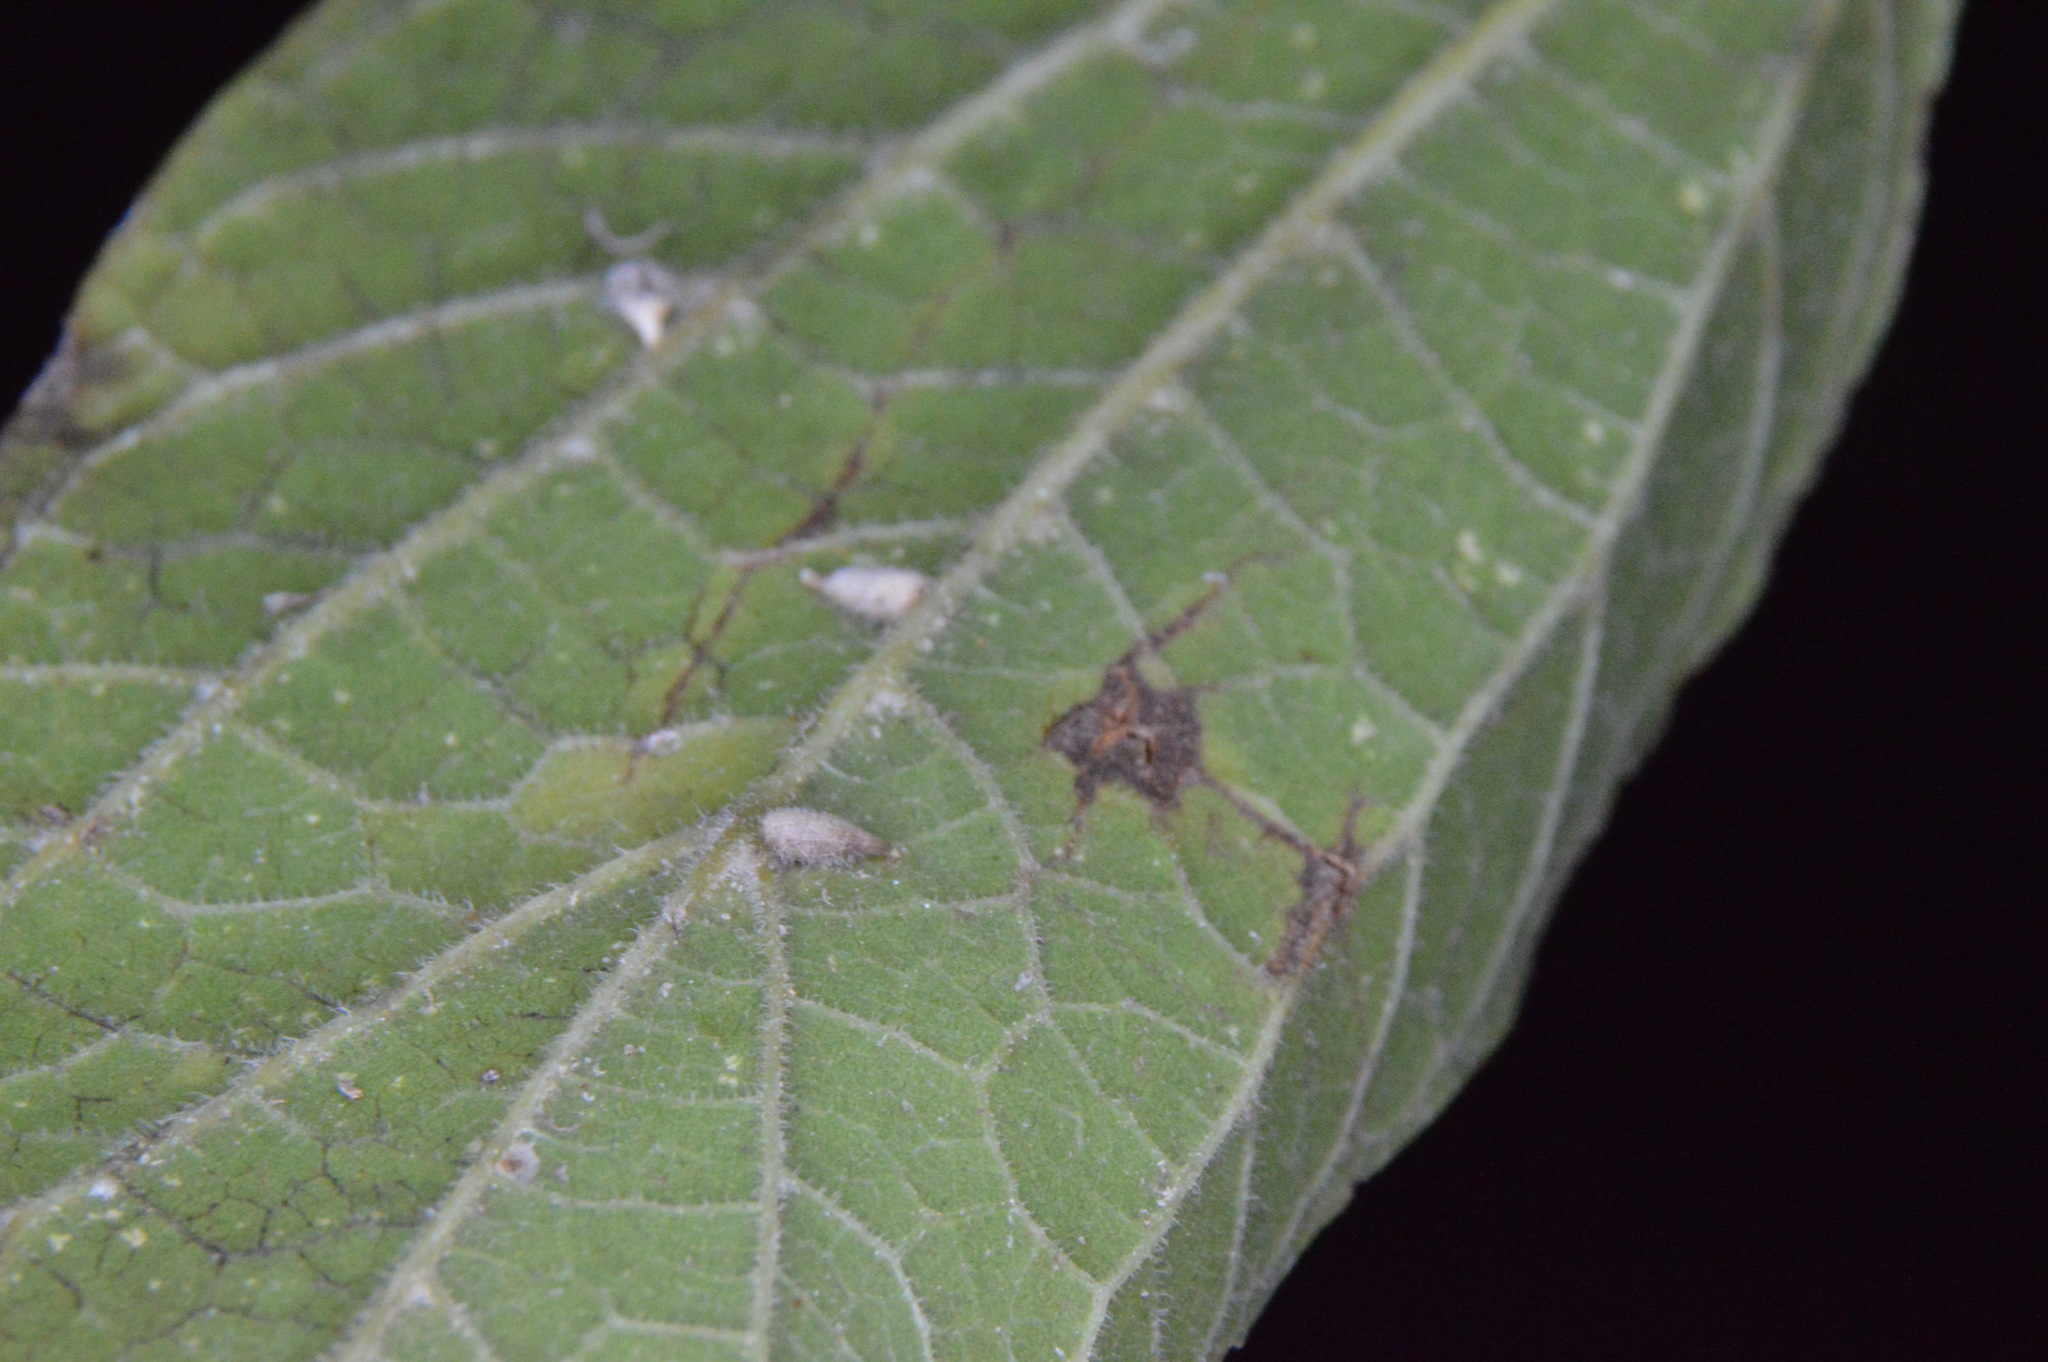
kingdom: Animalia
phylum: Arthropoda
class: Insecta
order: Diptera
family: Cecidomyiidae
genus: Celticecis
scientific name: Celticecis supina
